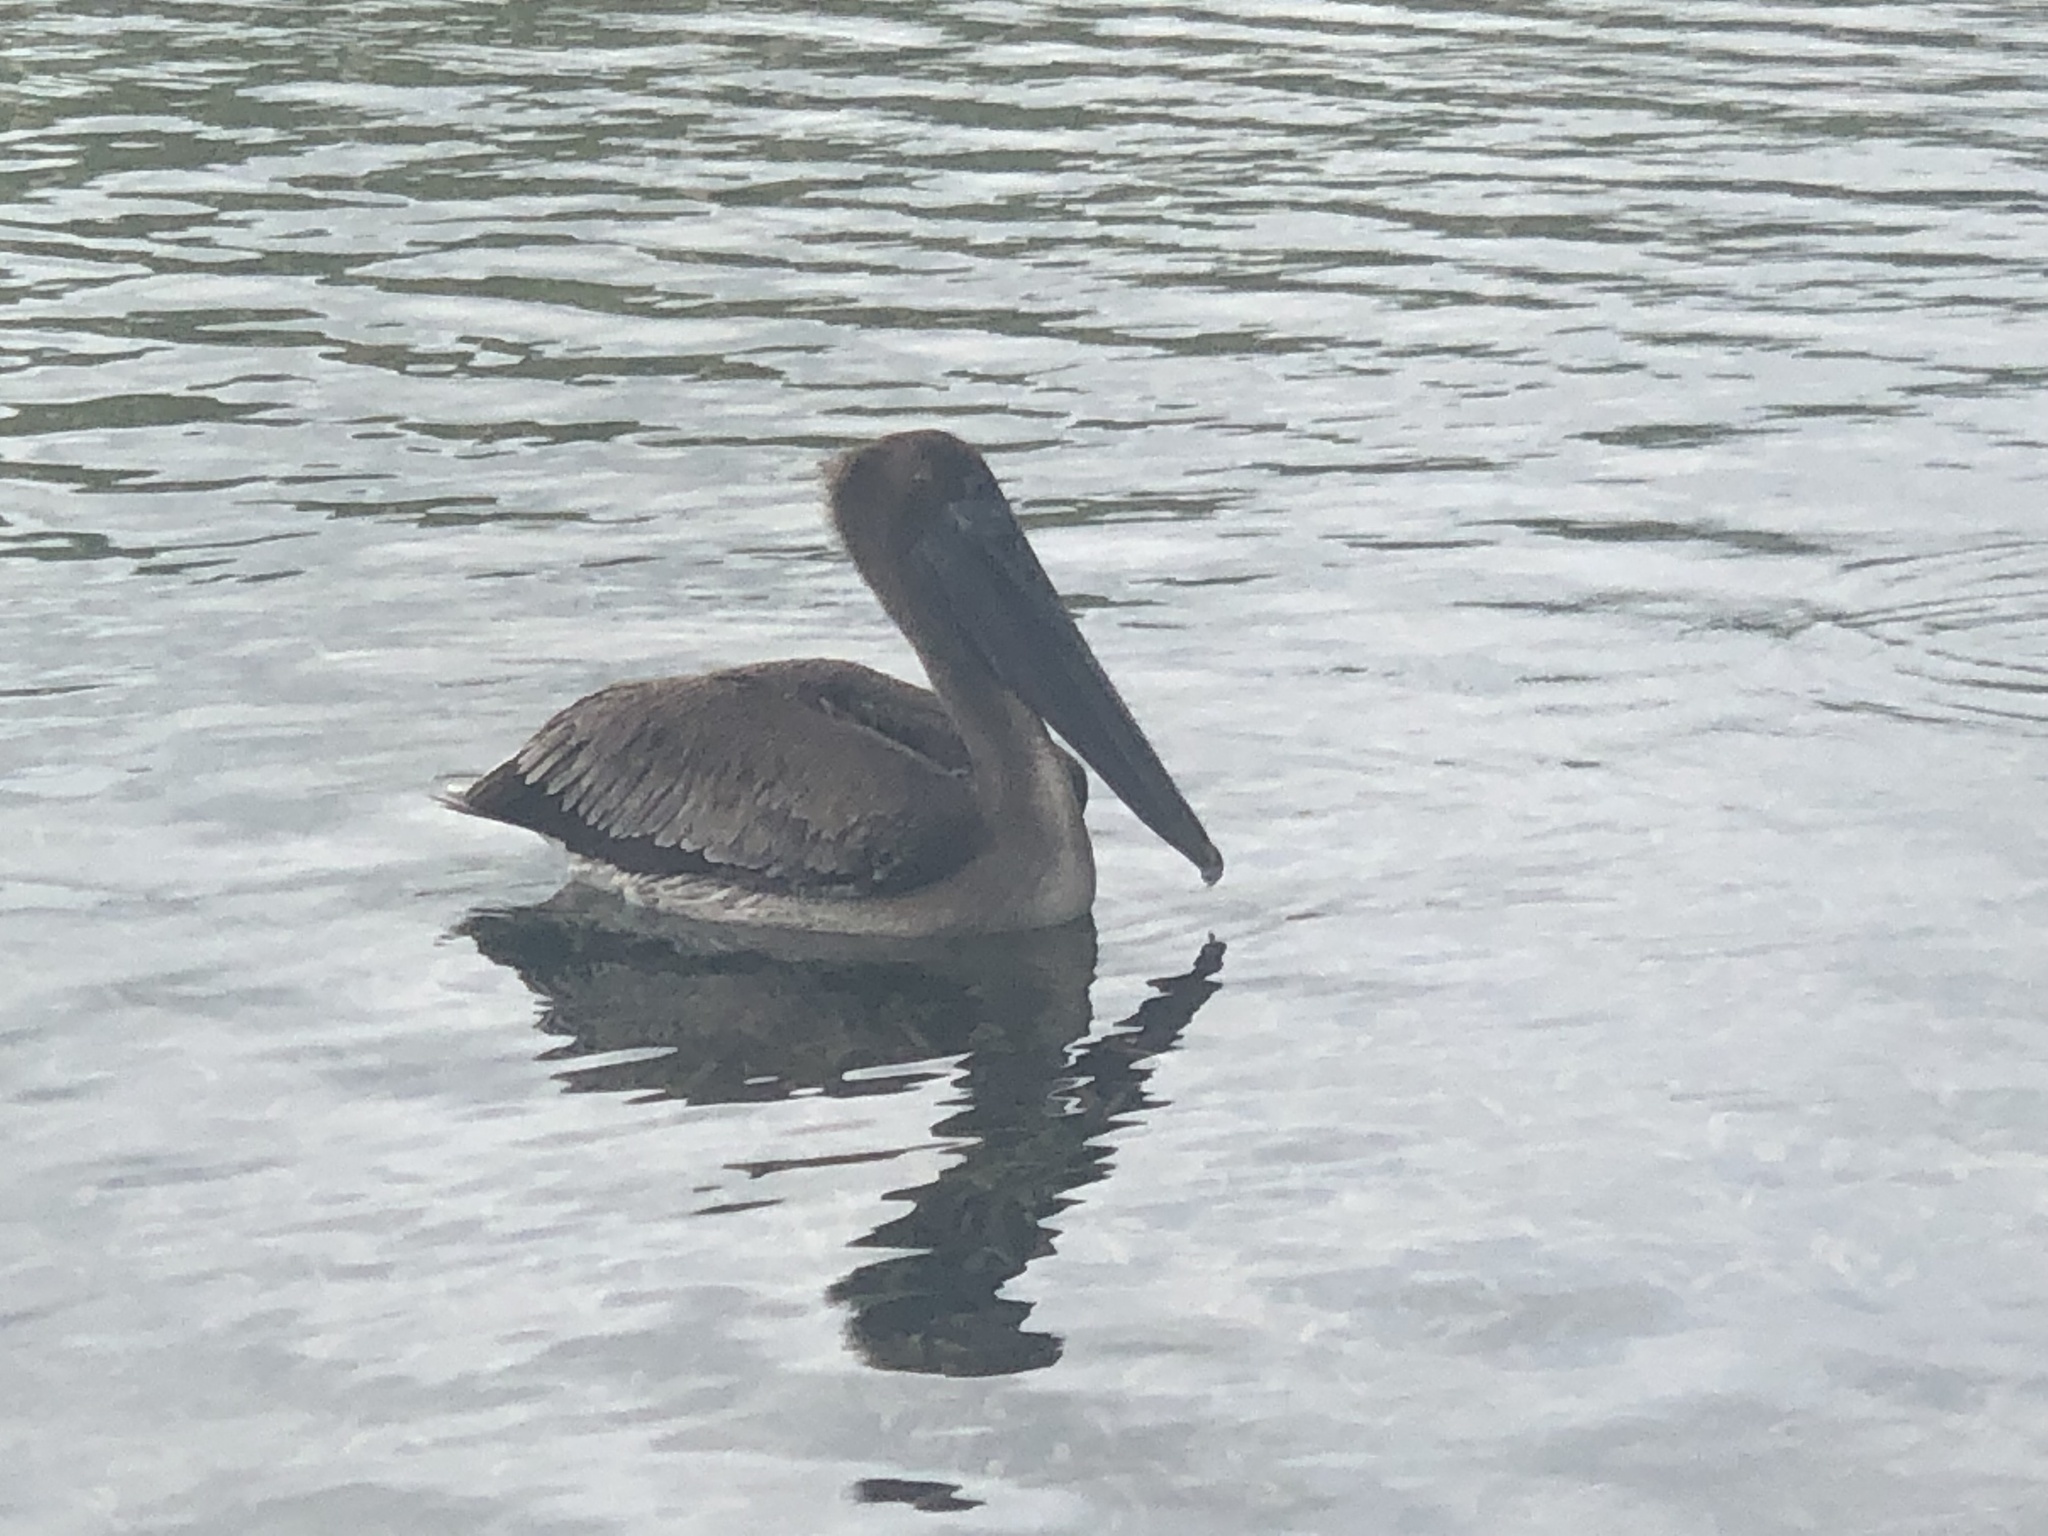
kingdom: Animalia
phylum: Chordata
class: Aves
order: Pelecaniformes
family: Pelecanidae
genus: Pelecanus
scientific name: Pelecanus occidentalis
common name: Brown pelican
